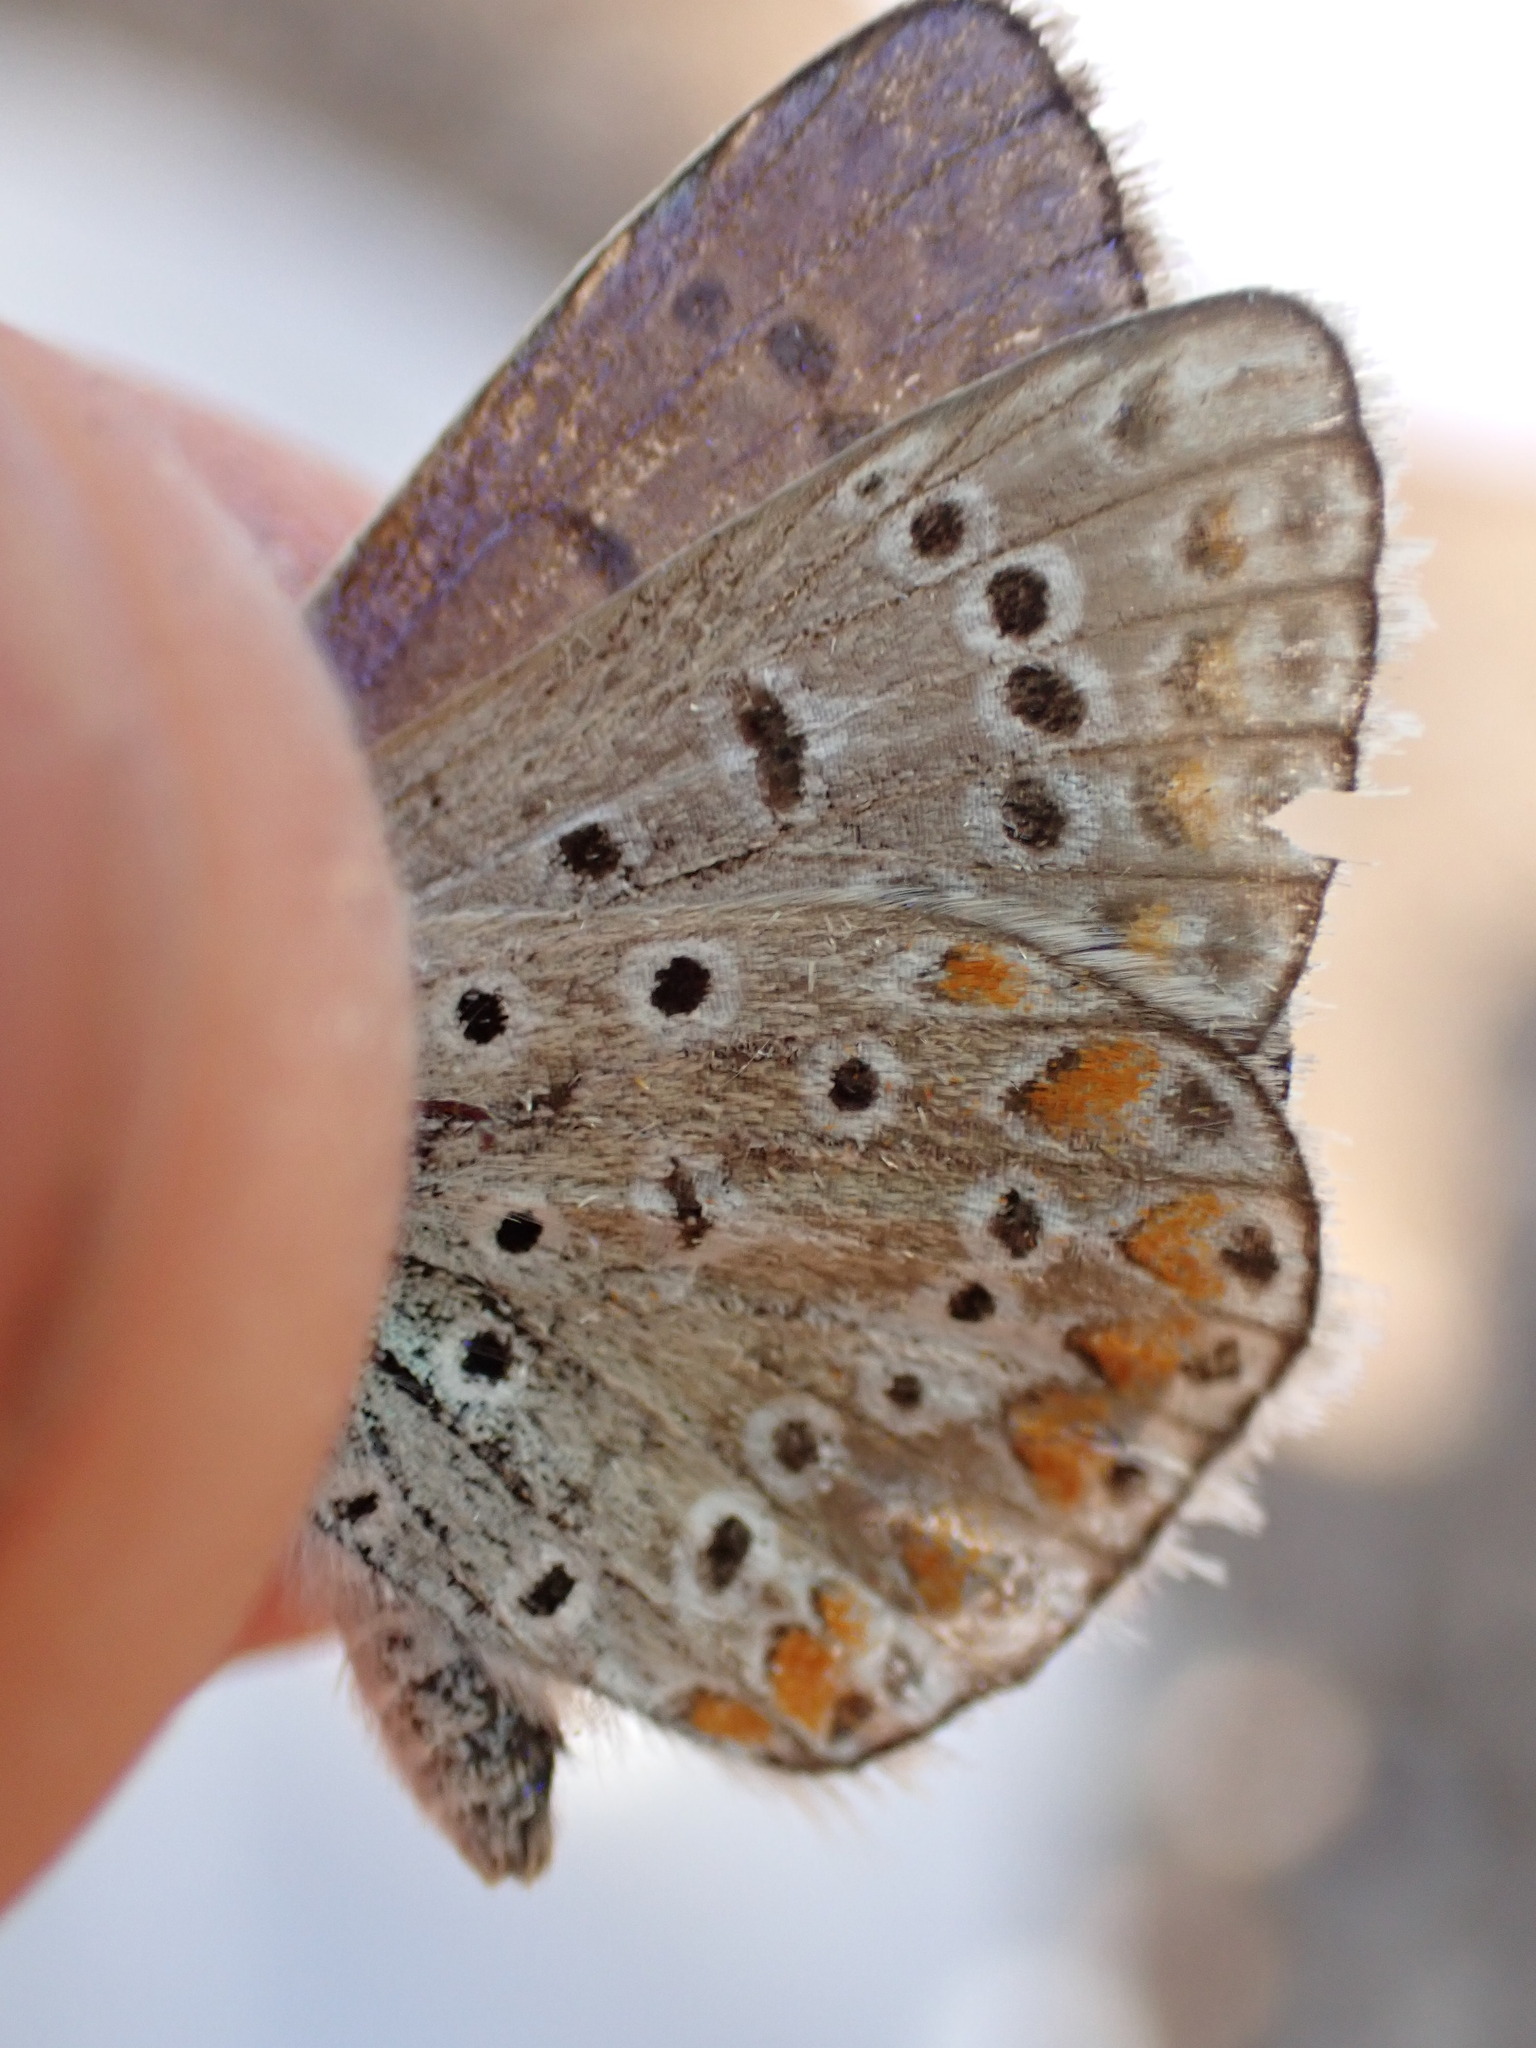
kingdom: Animalia
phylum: Arthropoda
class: Insecta
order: Lepidoptera
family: Lycaenidae
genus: Polyommatus
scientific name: Polyommatus icarus
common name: Common blue
